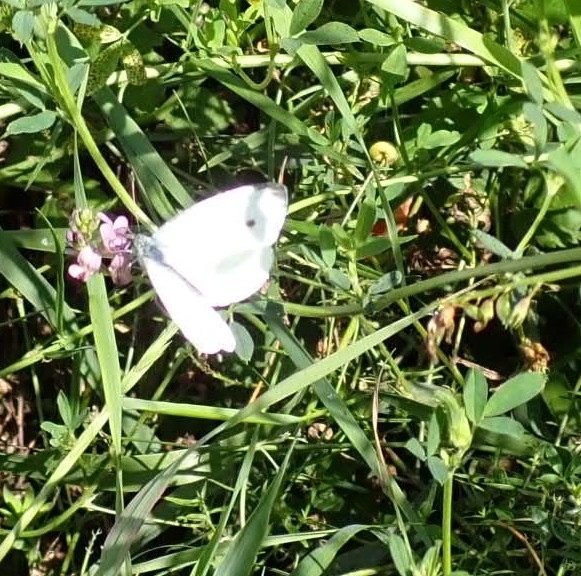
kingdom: Animalia
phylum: Arthropoda
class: Insecta
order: Lepidoptera
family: Pieridae
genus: Pieris
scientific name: Pieris napi
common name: Green-veined white
